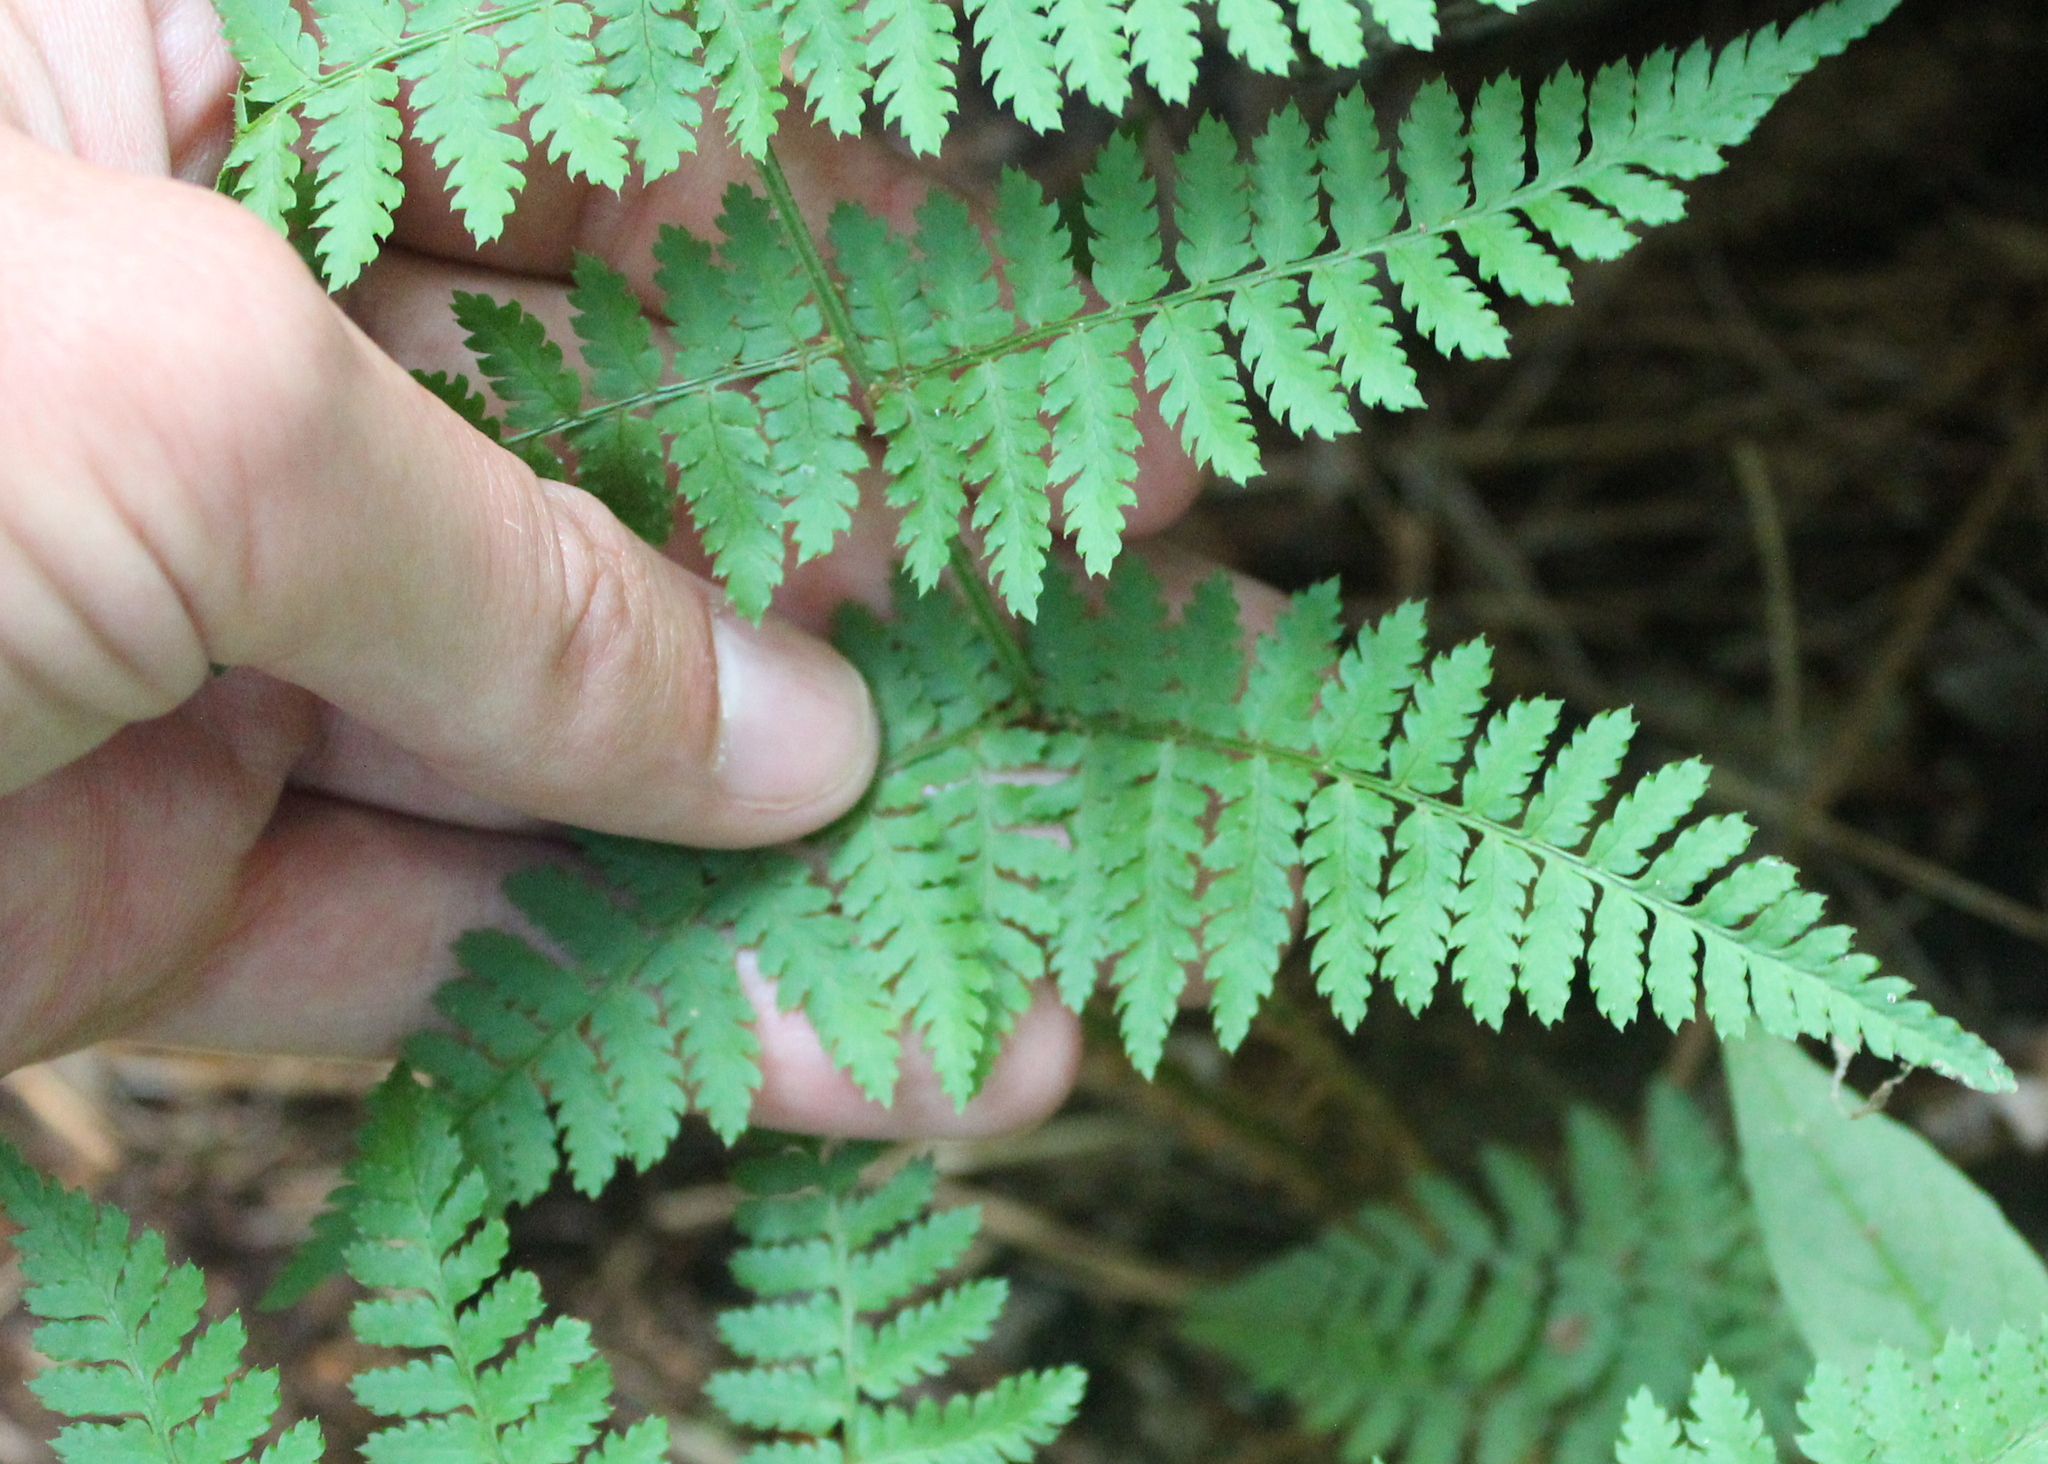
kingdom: Plantae
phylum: Tracheophyta
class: Polypodiopsida
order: Polypodiales
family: Dryopteridaceae
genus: Dryopteris
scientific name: Dryopteris intermedia
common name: Evergreen wood fern
